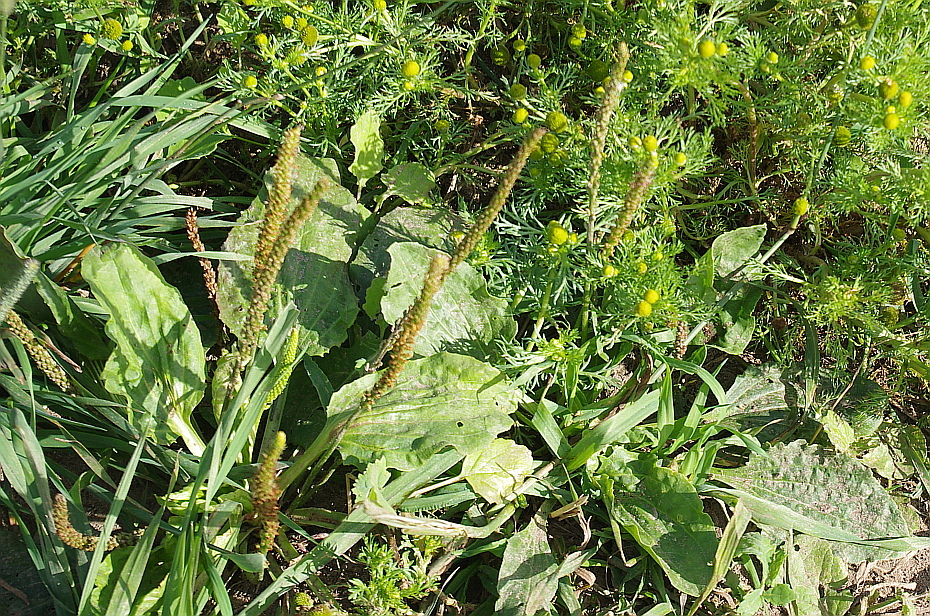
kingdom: Plantae
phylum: Tracheophyta
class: Magnoliopsida
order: Lamiales
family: Plantaginaceae
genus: Plantago
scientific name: Plantago major
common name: Common plantain
